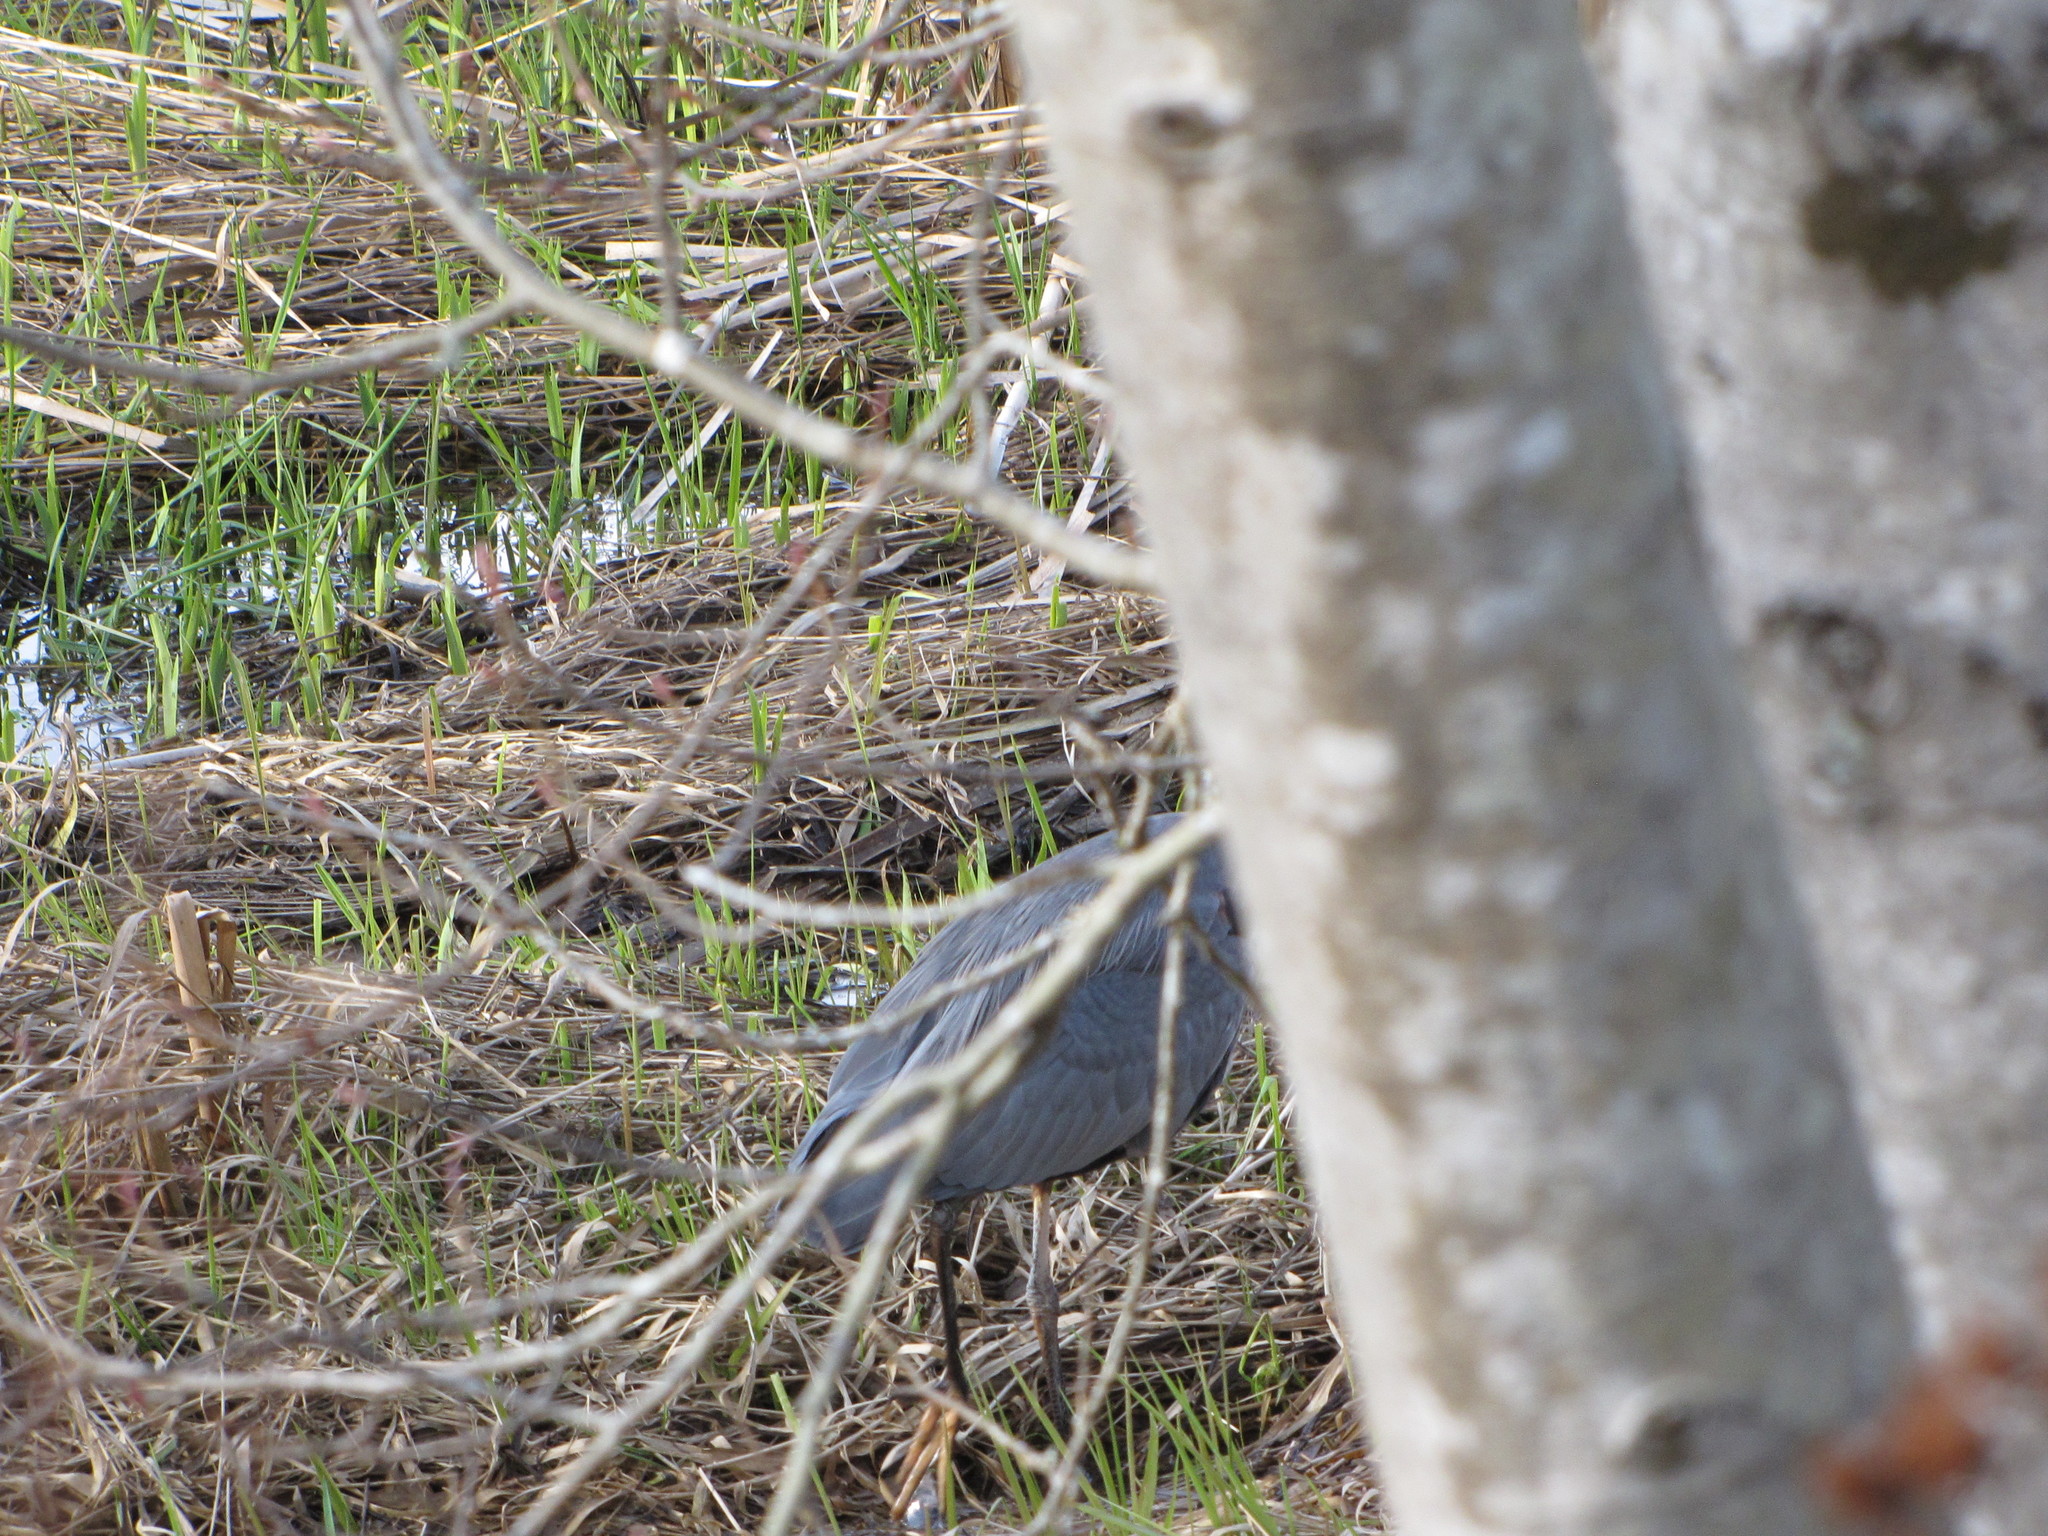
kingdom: Animalia
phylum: Chordata
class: Aves
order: Pelecaniformes
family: Ardeidae
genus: Ardea
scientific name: Ardea herodias
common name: Great blue heron
